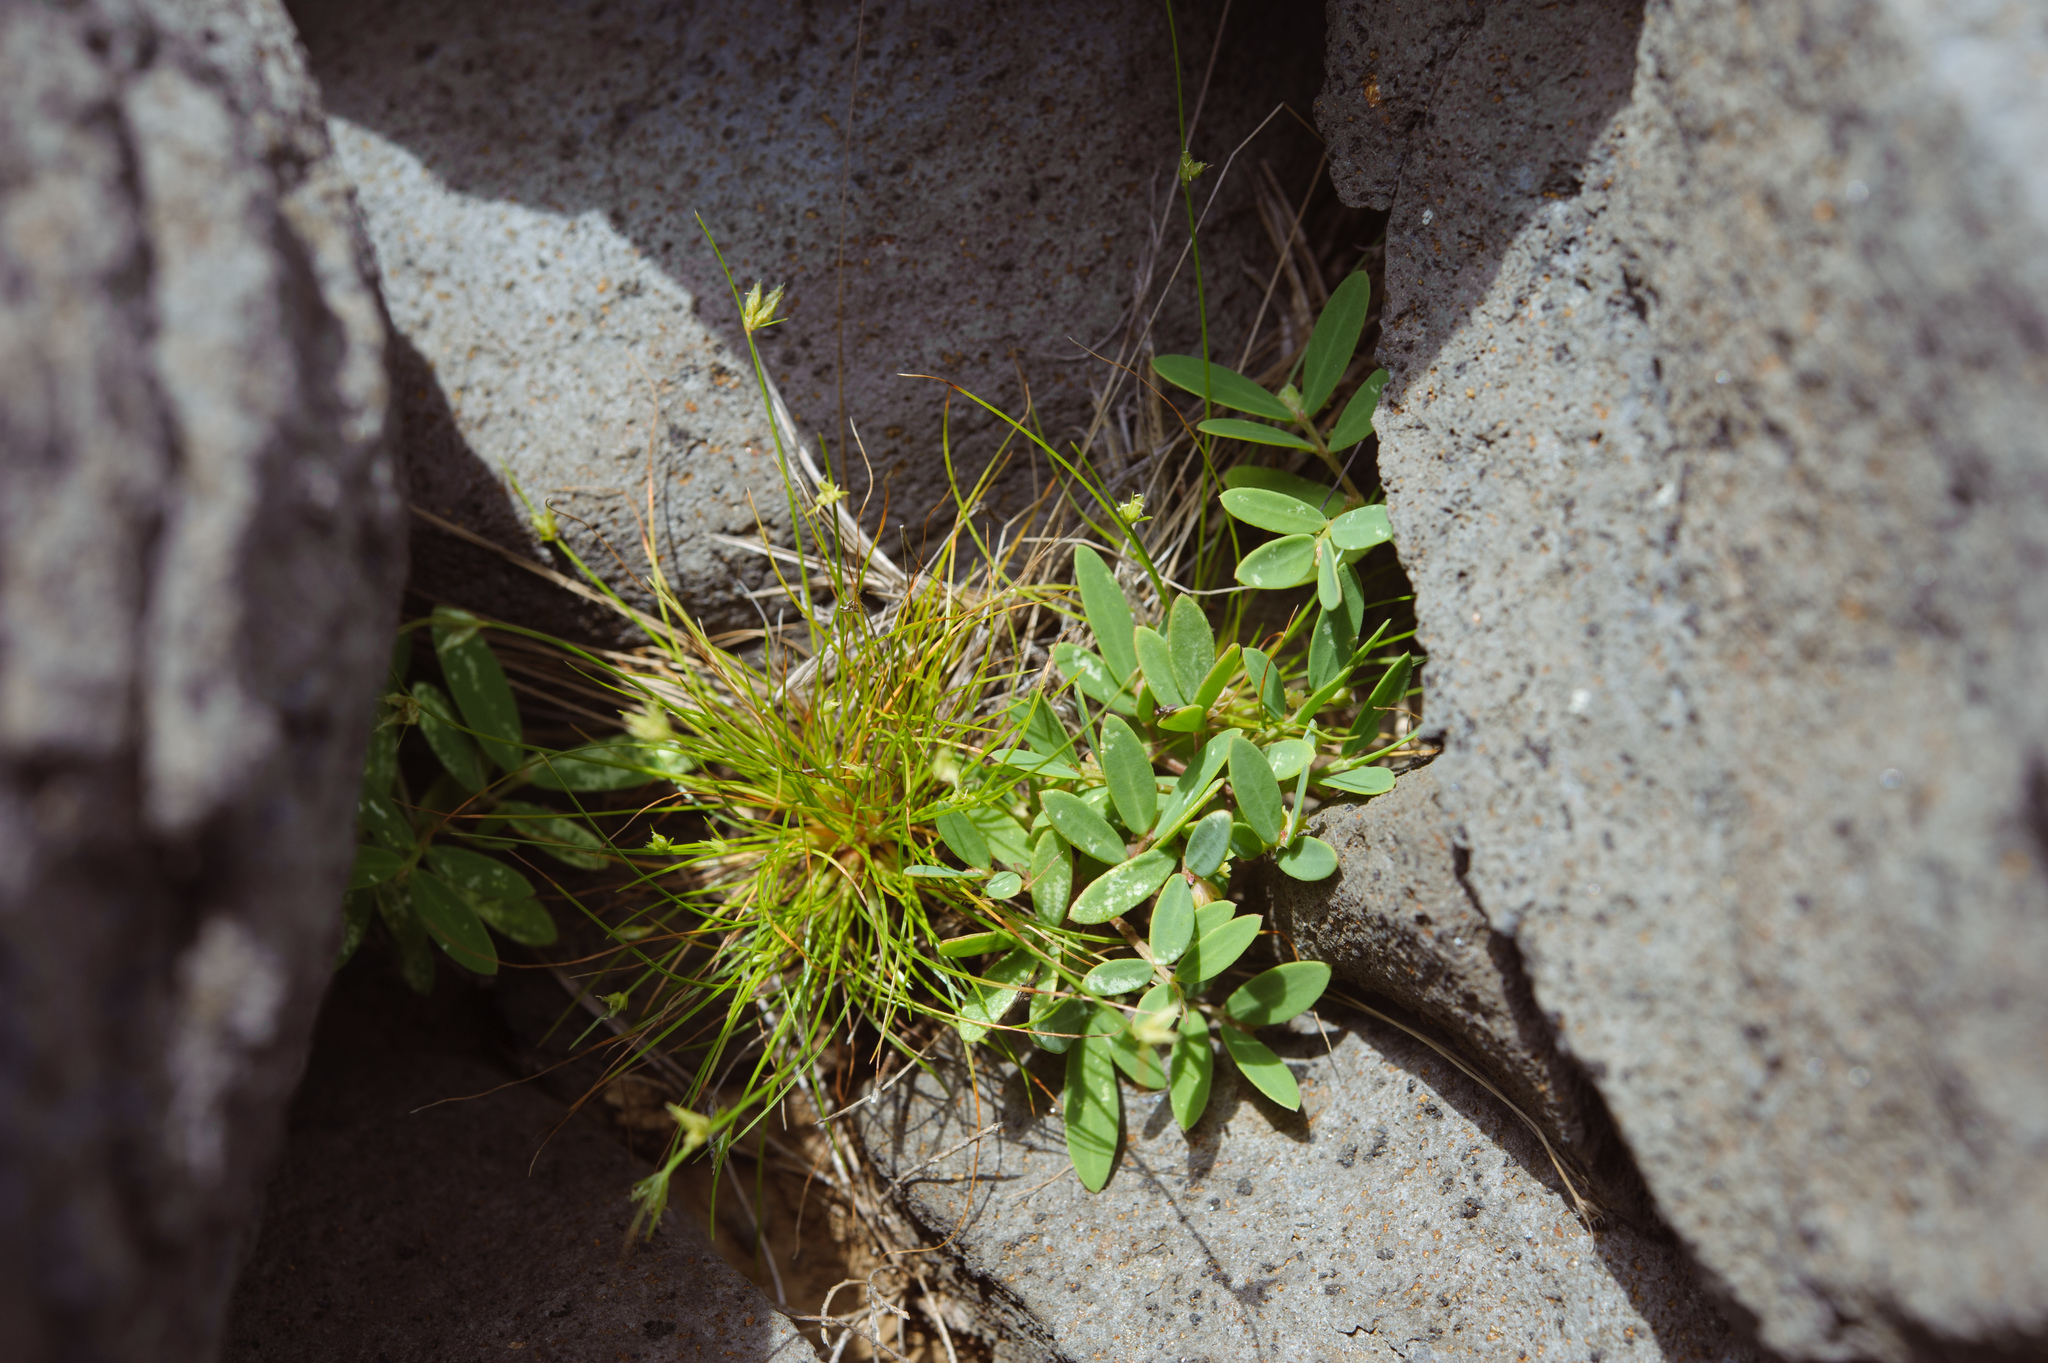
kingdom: Plantae
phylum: Tracheophyta
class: Magnoliopsida
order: Malpighiales
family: Phyllanthaceae
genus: Synostemon
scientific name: Synostemon bacciformis
